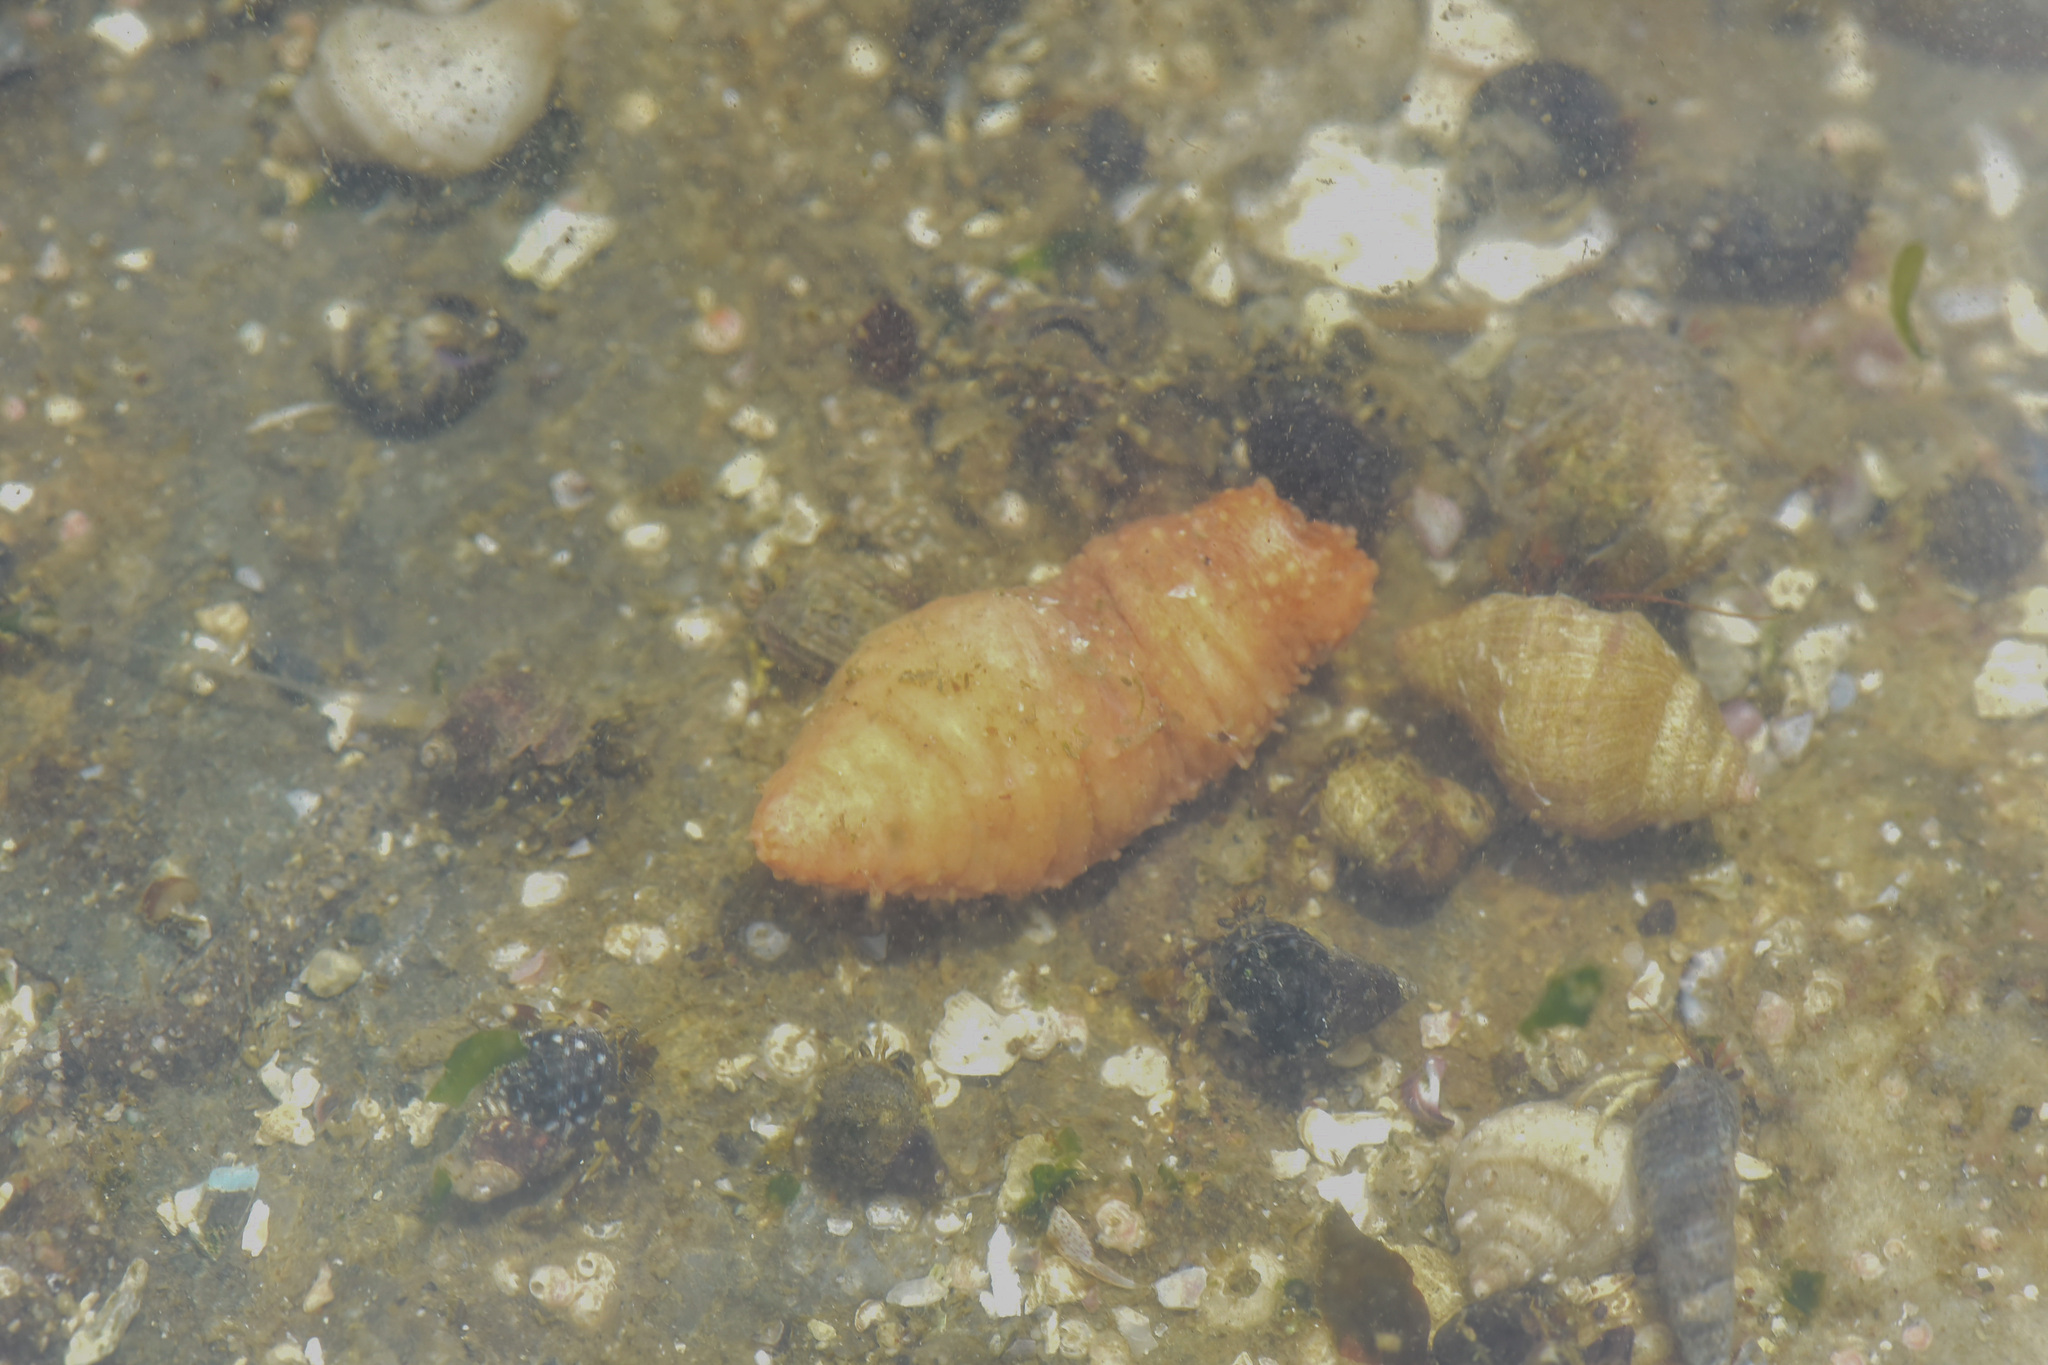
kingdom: Animalia
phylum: Echinodermata
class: Holothuroidea
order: Dendrochirotida
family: Cucumariidae
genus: Cucumaria
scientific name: Cucumaria miniata
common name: Orange sea cucumber
